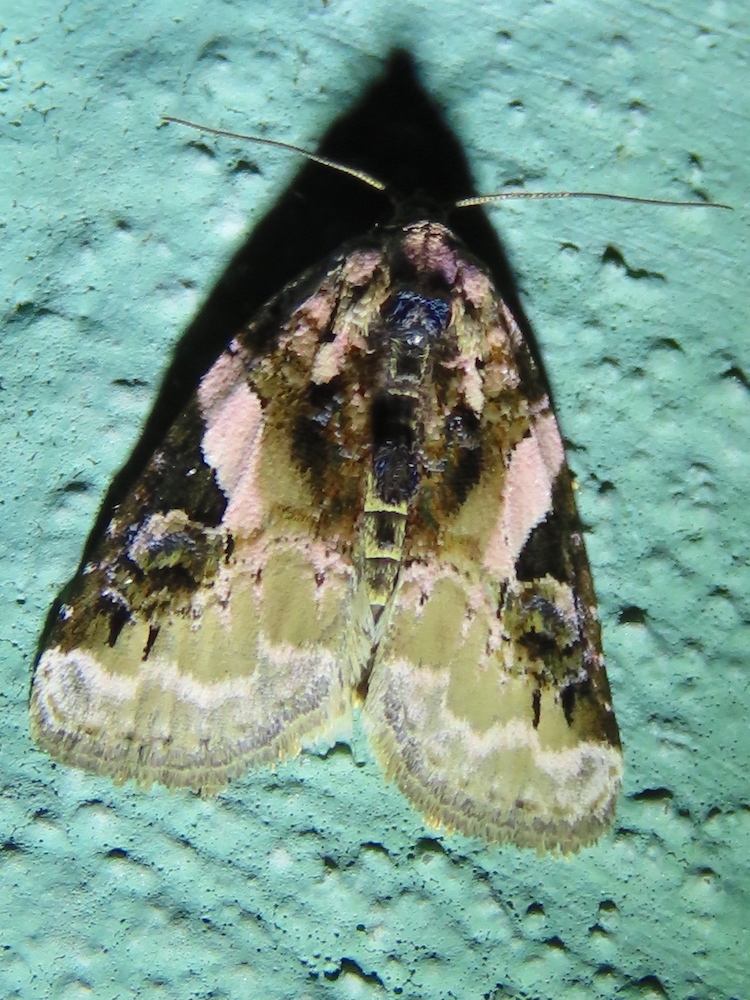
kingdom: Animalia
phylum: Arthropoda
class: Insecta
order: Lepidoptera
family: Noctuidae
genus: Pseudeustrotia
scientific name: Pseudeustrotia carneola
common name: Pink-barred lithacodia moth
